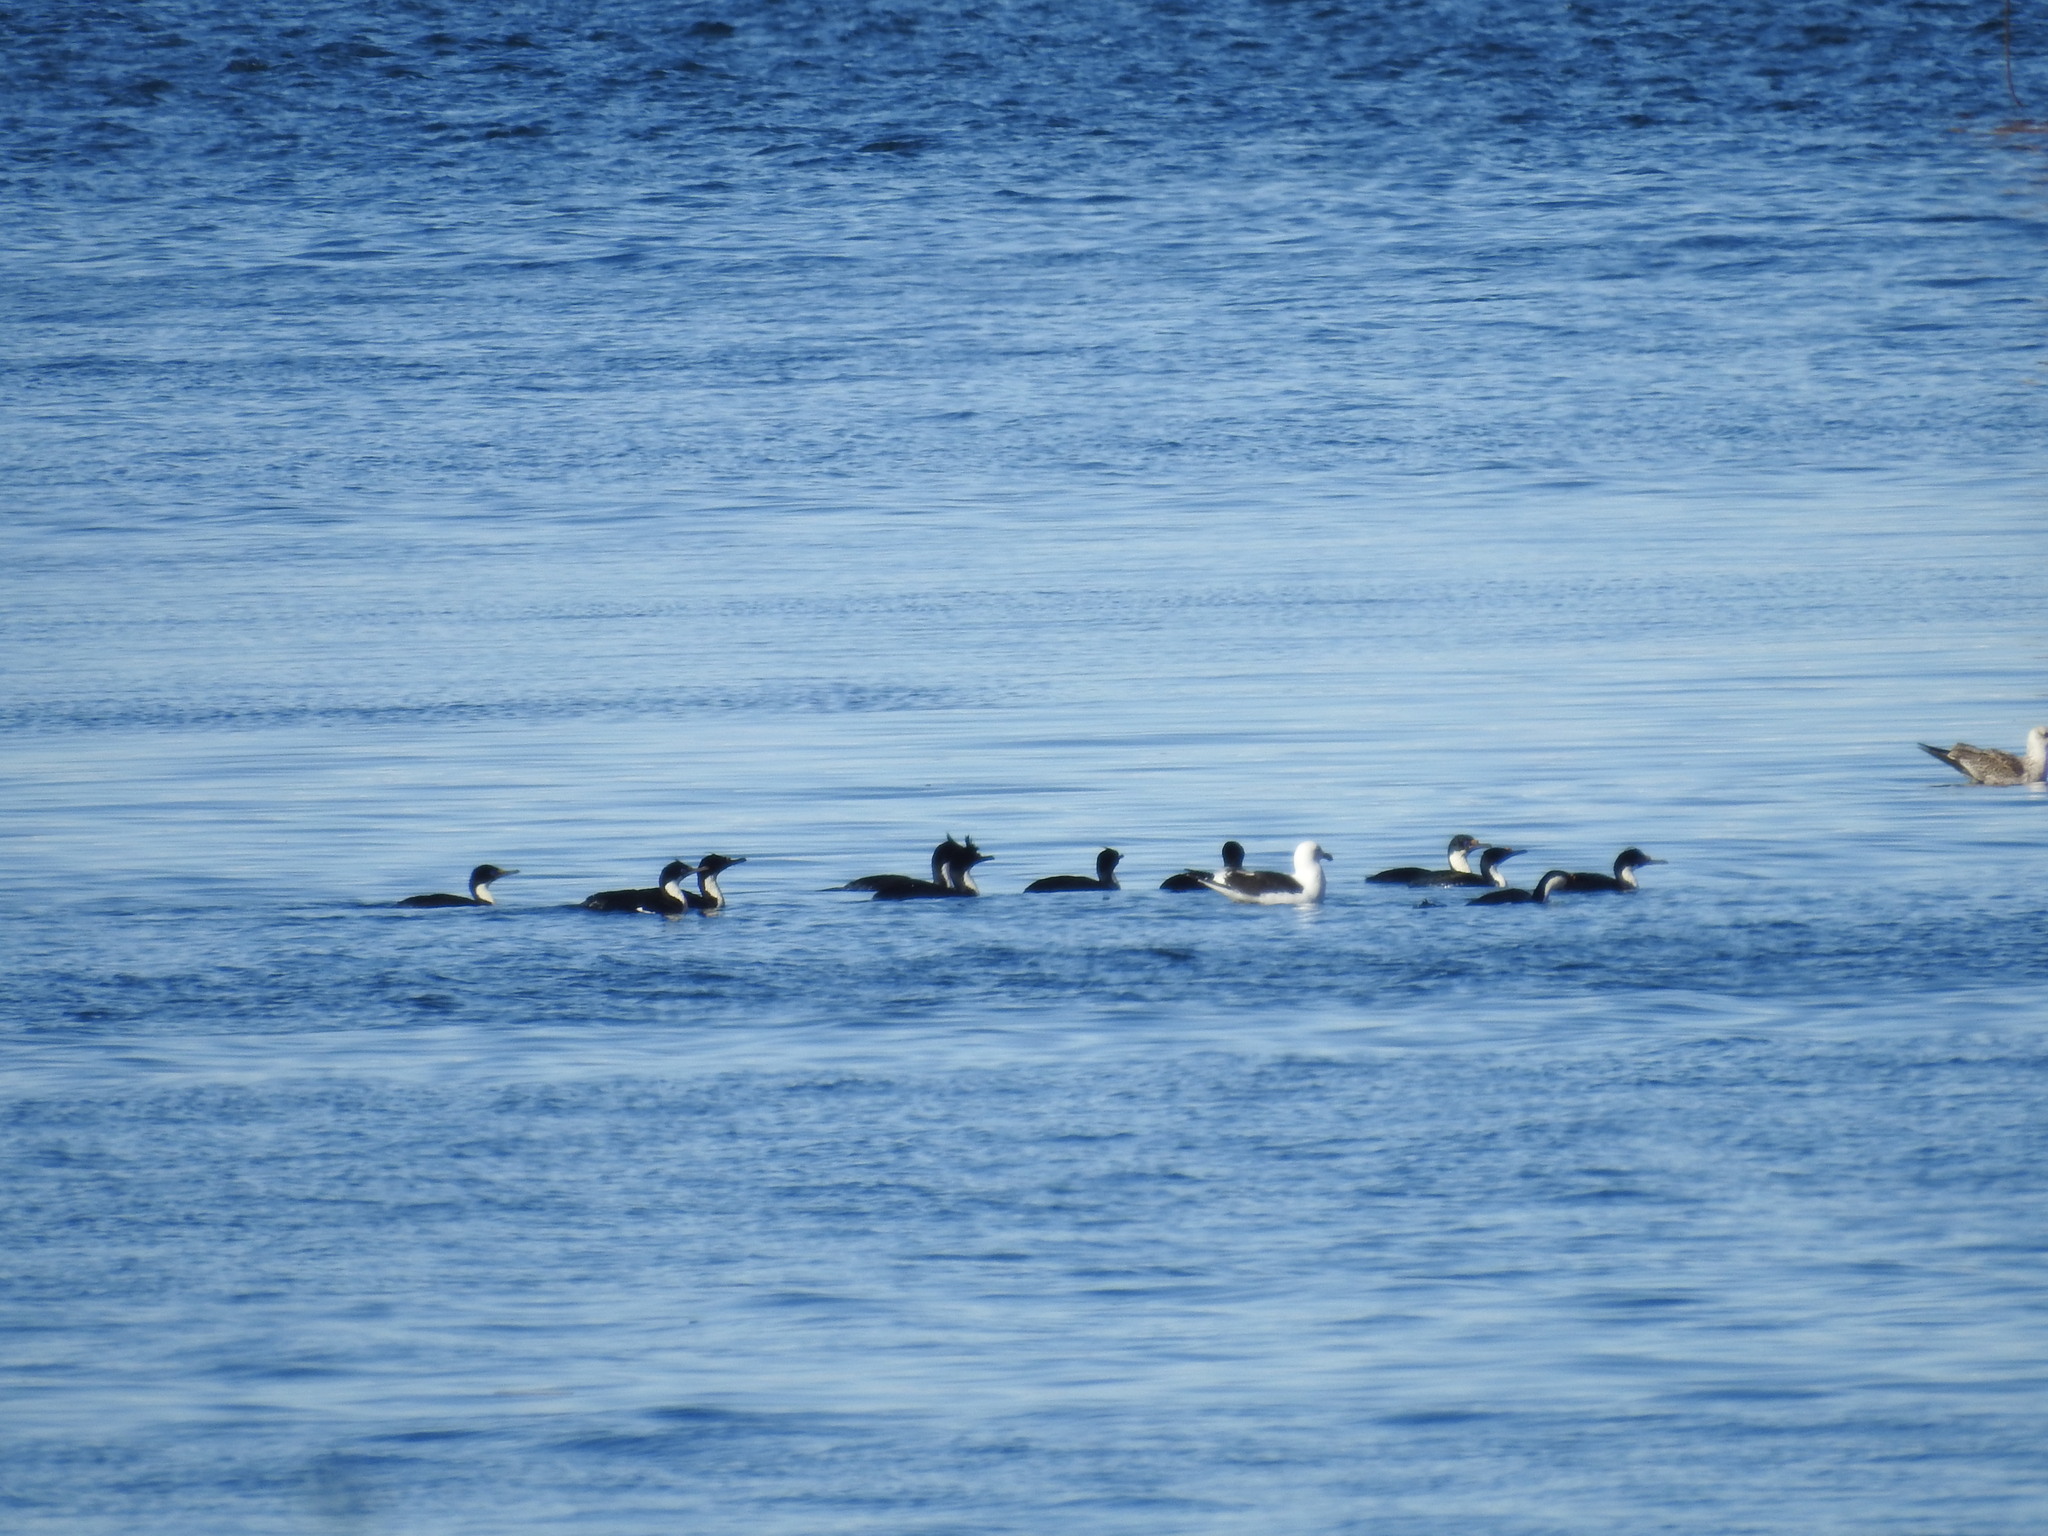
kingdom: Animalia
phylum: Chordata
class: Aves
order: Suliformes
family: Phalacrocoracidae
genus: Leucocarbo
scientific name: Leucocarbo atriceps
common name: Imperial shag
